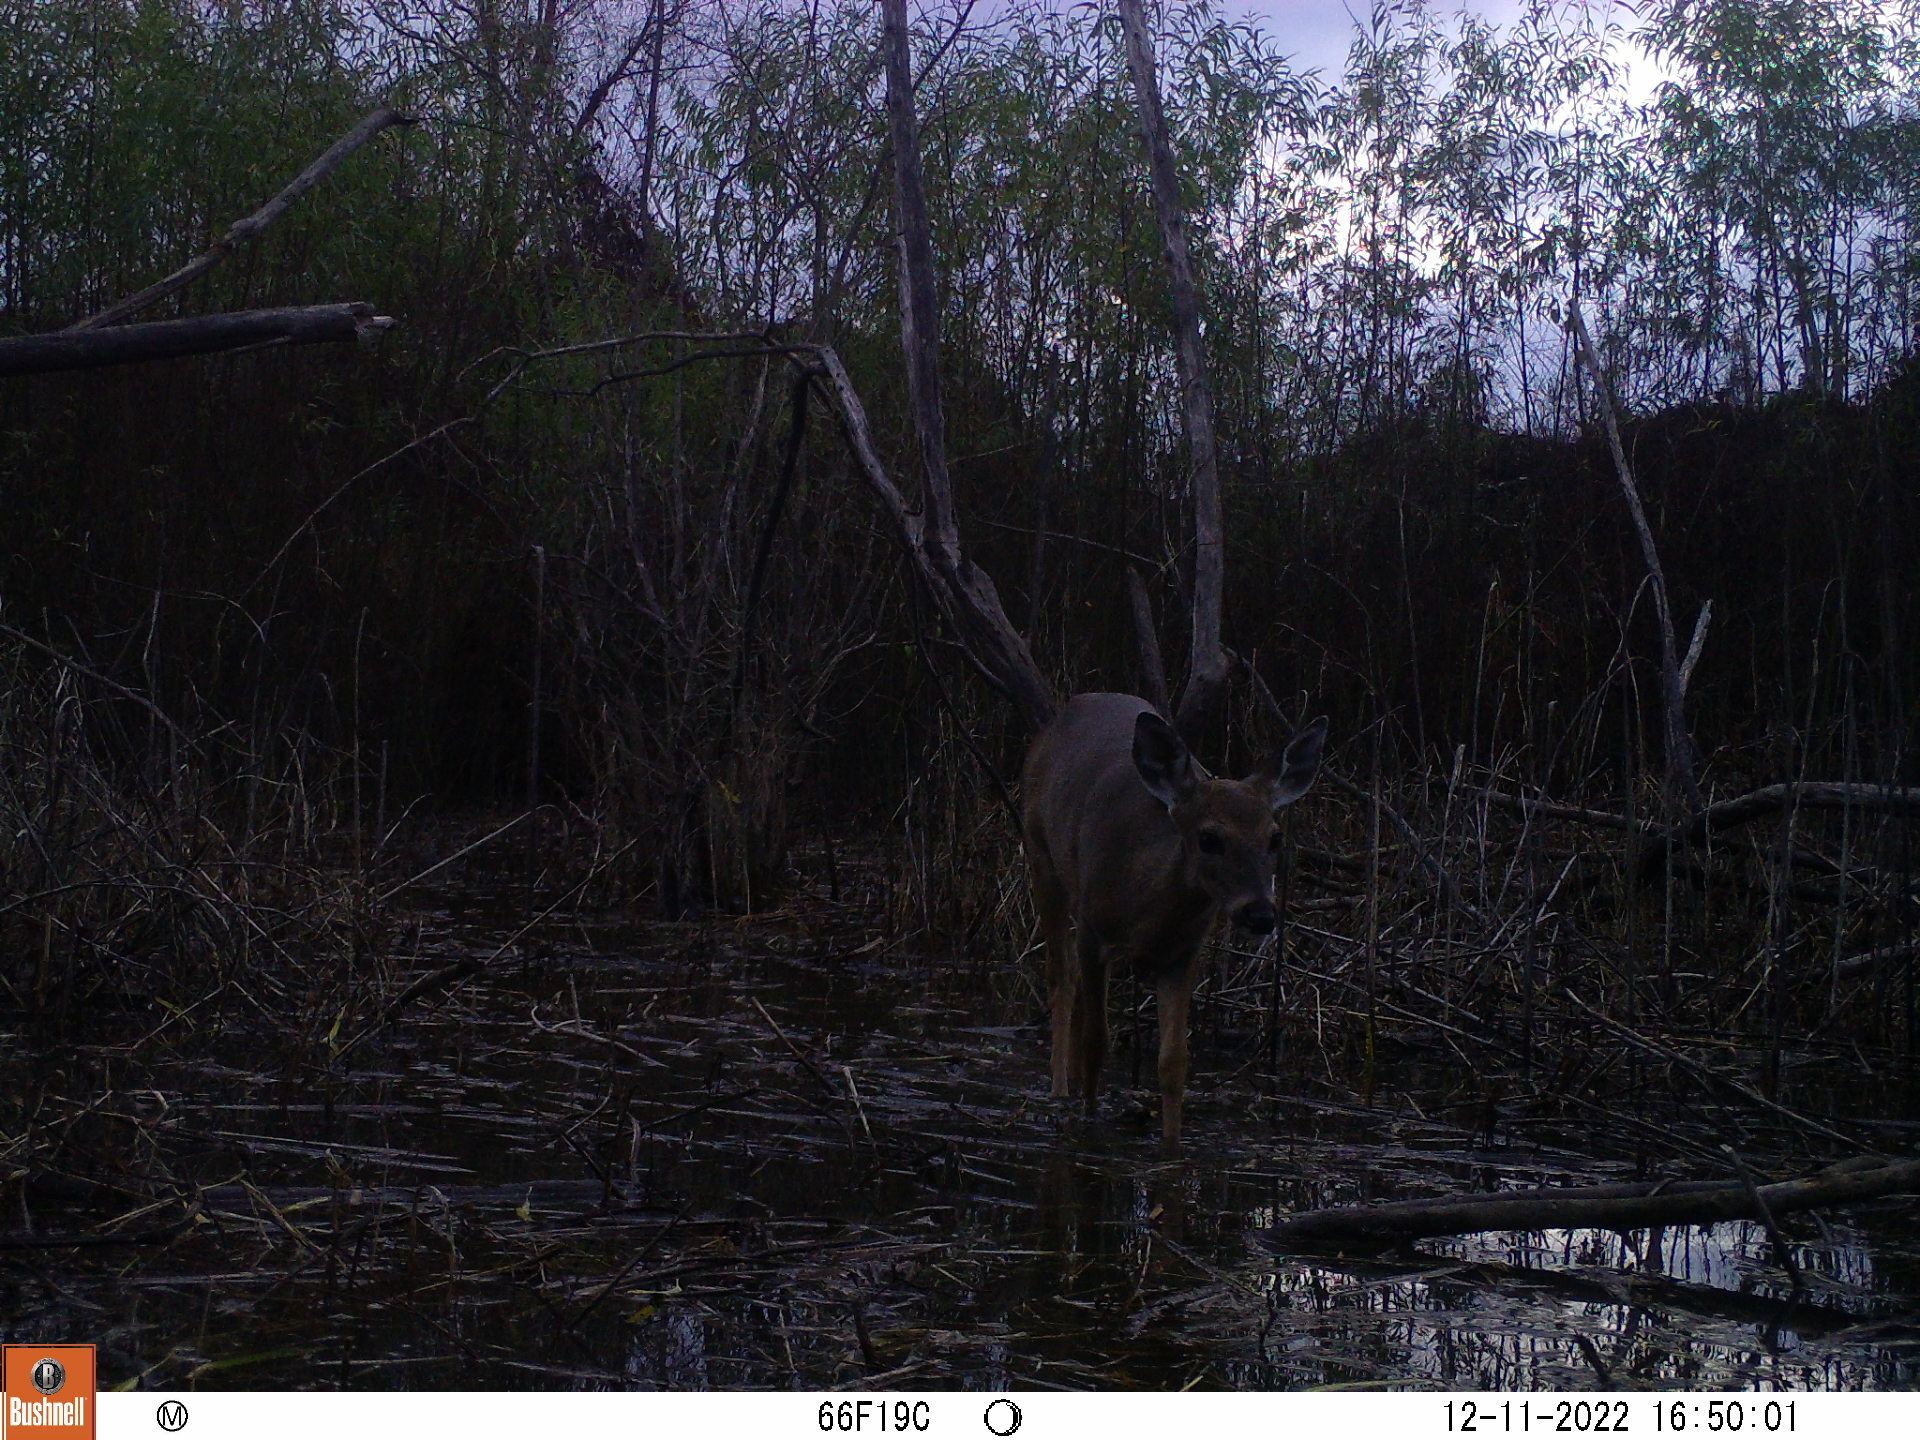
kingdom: Animalia
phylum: Chordata
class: Mammalia
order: Artiodactyla
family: Cervidae
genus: Odocoileus
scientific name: Odocoileus virginianus
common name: White-tailed deer
